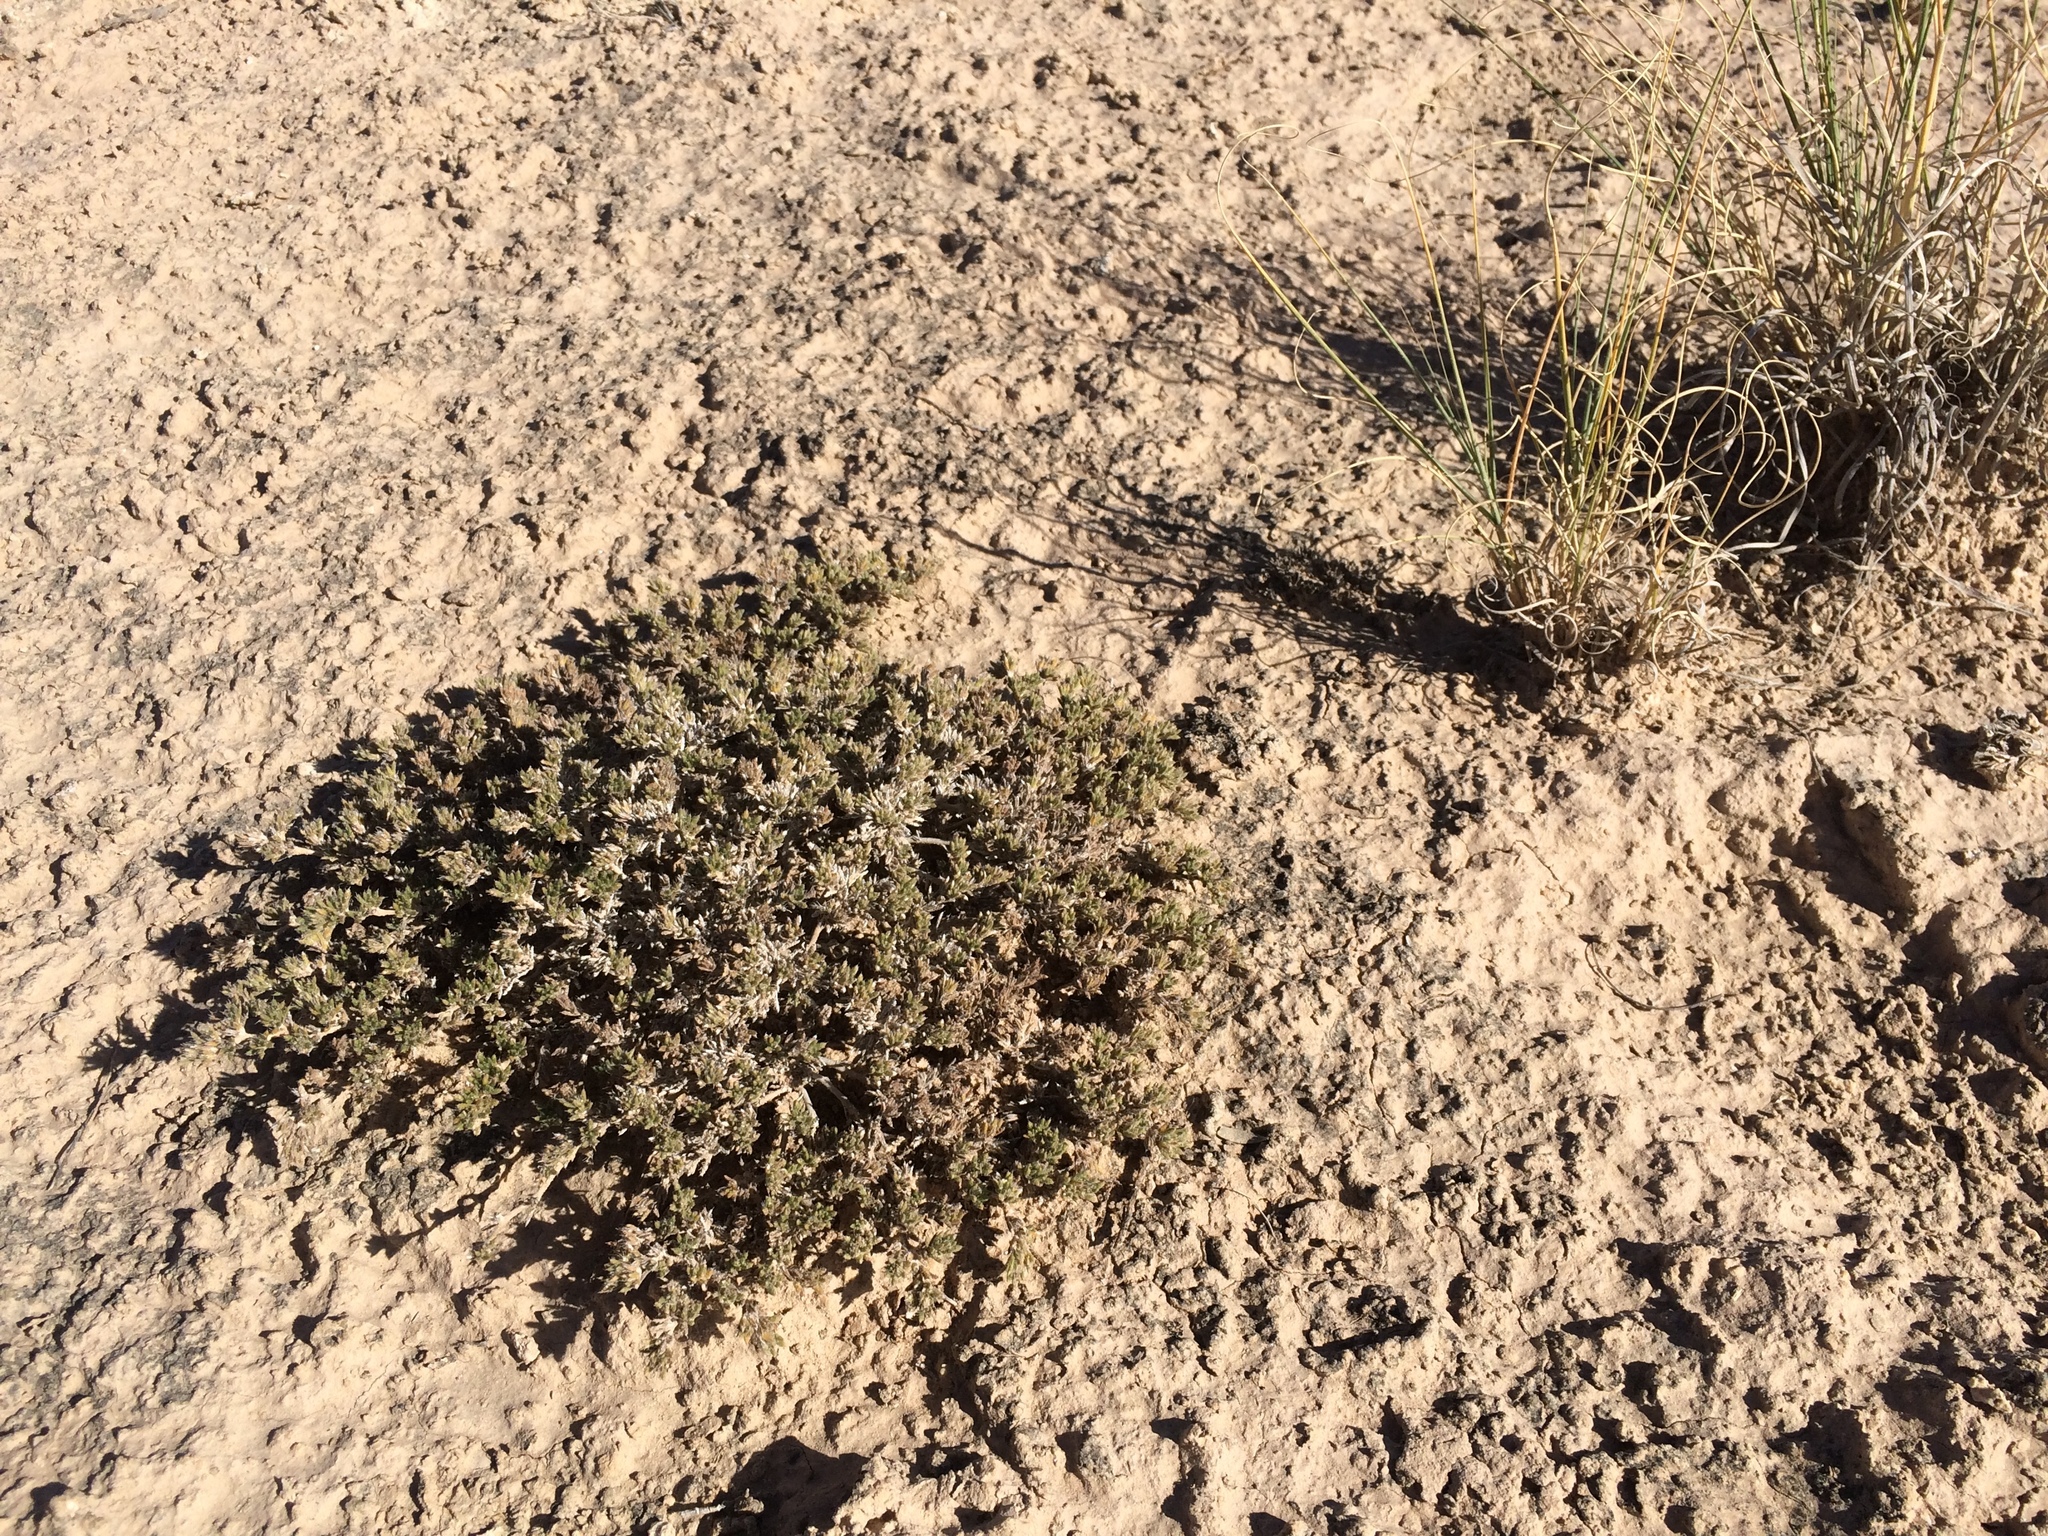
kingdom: Plantae
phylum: Tracheophyta
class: Magnoliopsida
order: Boraginales
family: Ehretiaceae
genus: Tiquilia
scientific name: Tiquilia hispidissima
